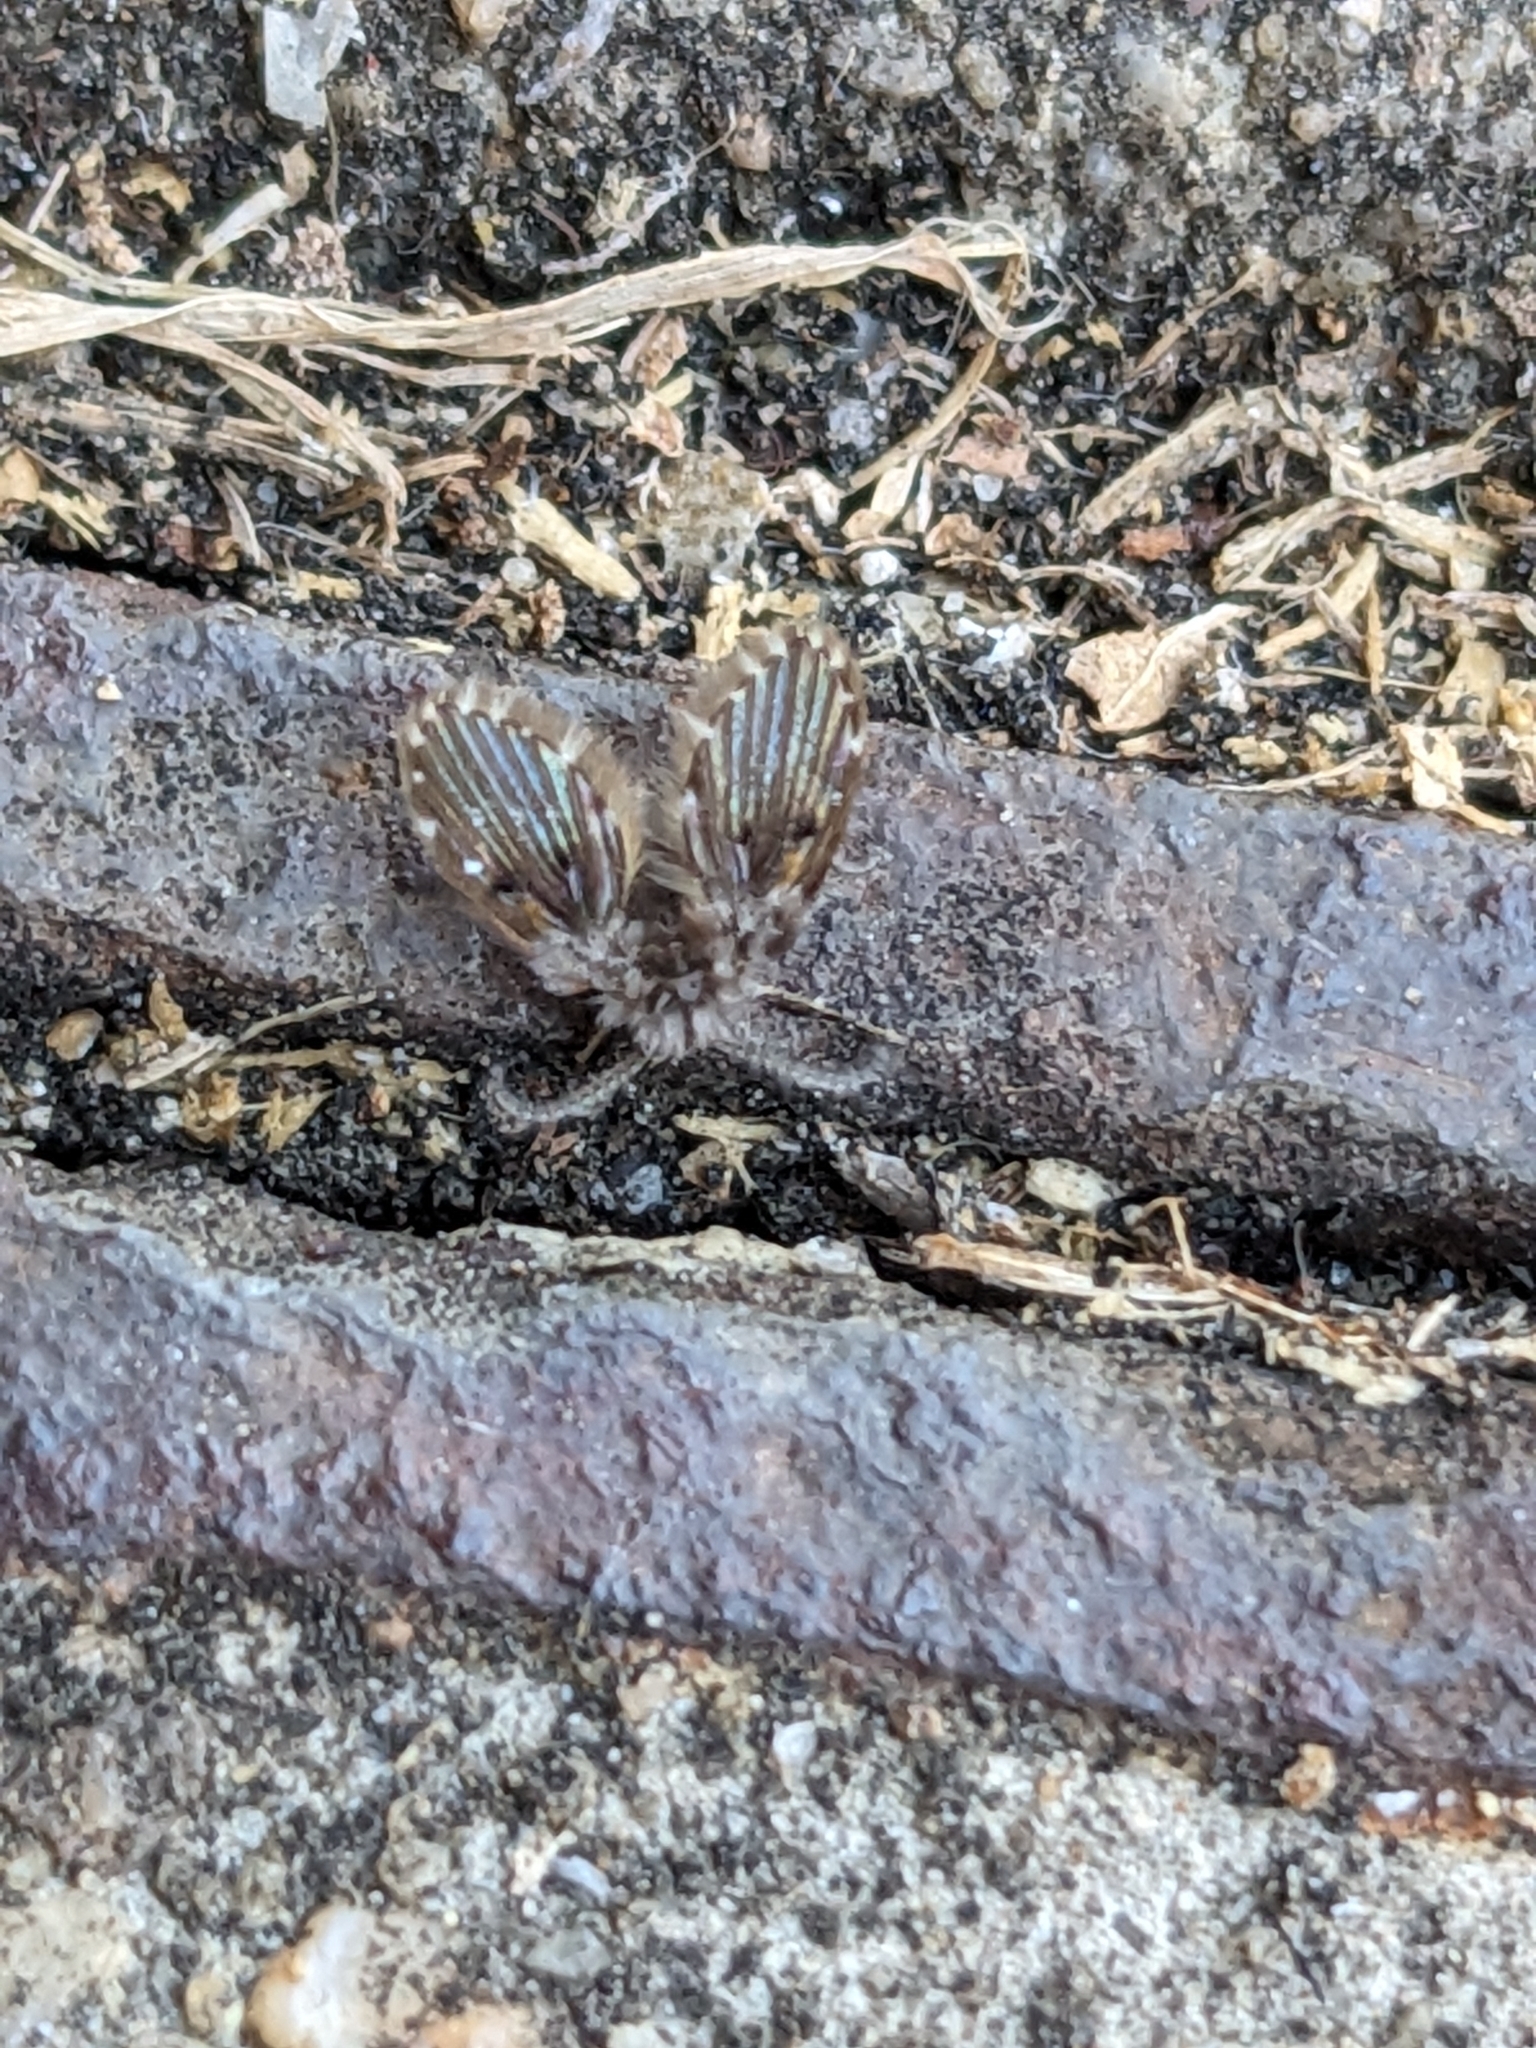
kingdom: Animalia
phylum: Arthropoda
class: Insecta
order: Diptera
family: Psychodidae
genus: Clogmia
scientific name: Clogmia albipunctatus
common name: White-spotted moth fly
